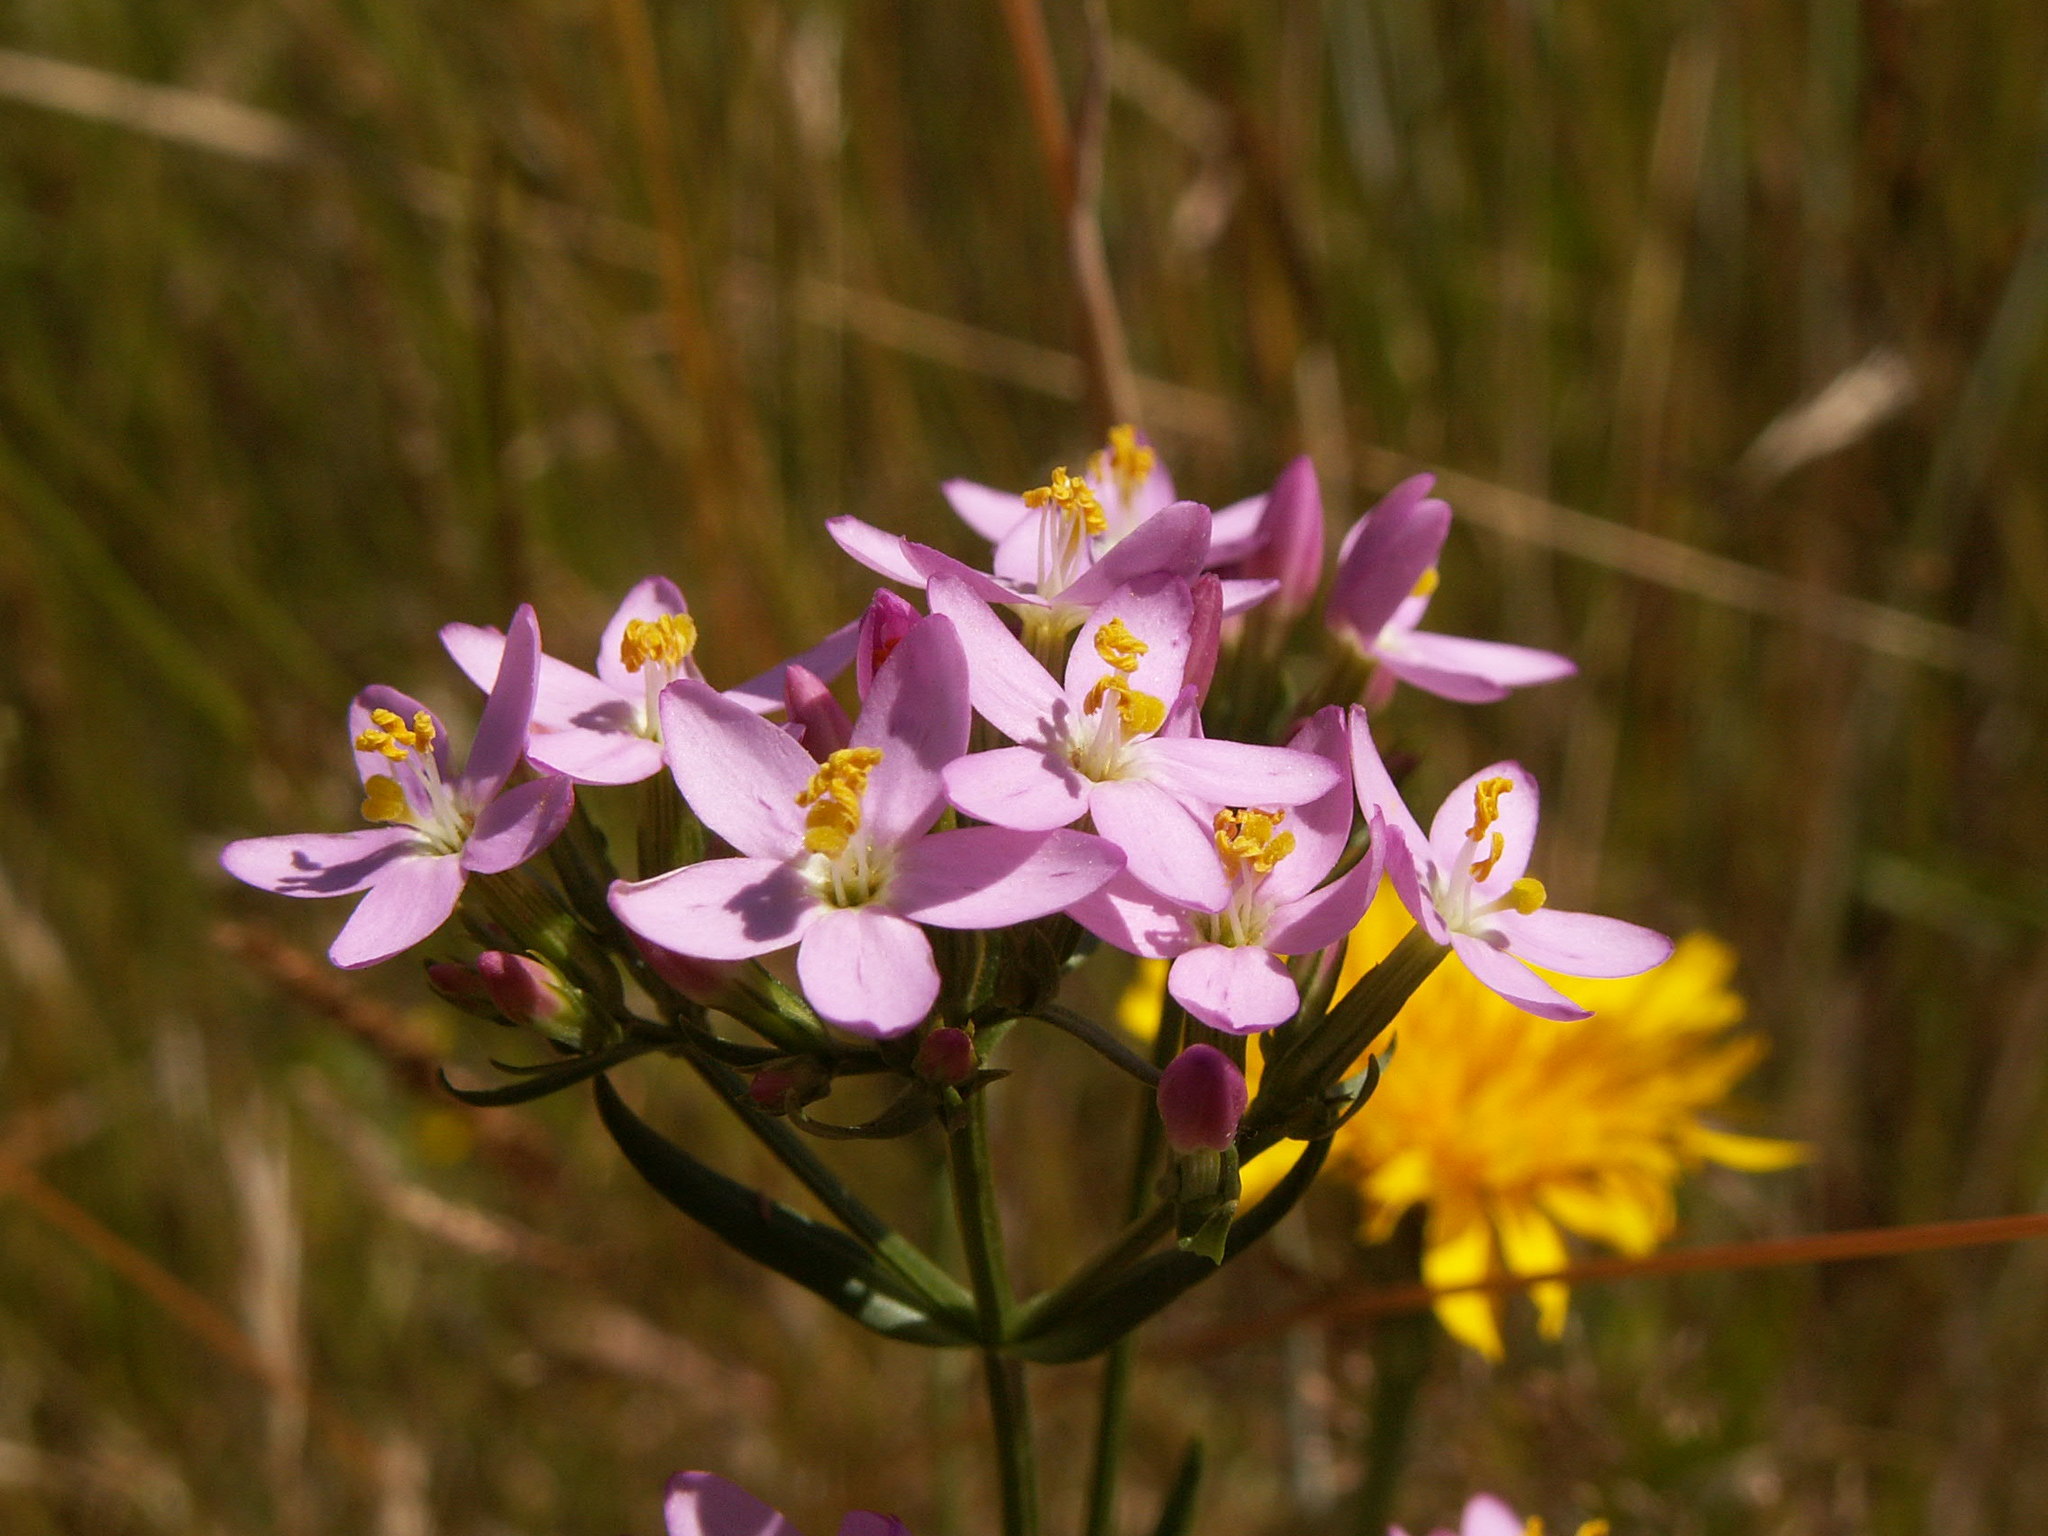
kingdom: Plantae
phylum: Tracheophyta
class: Magnoliopsida
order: Gentianales
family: Gentianaceae
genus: Centaurium
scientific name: Centaurium erythraea
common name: Common centaury
